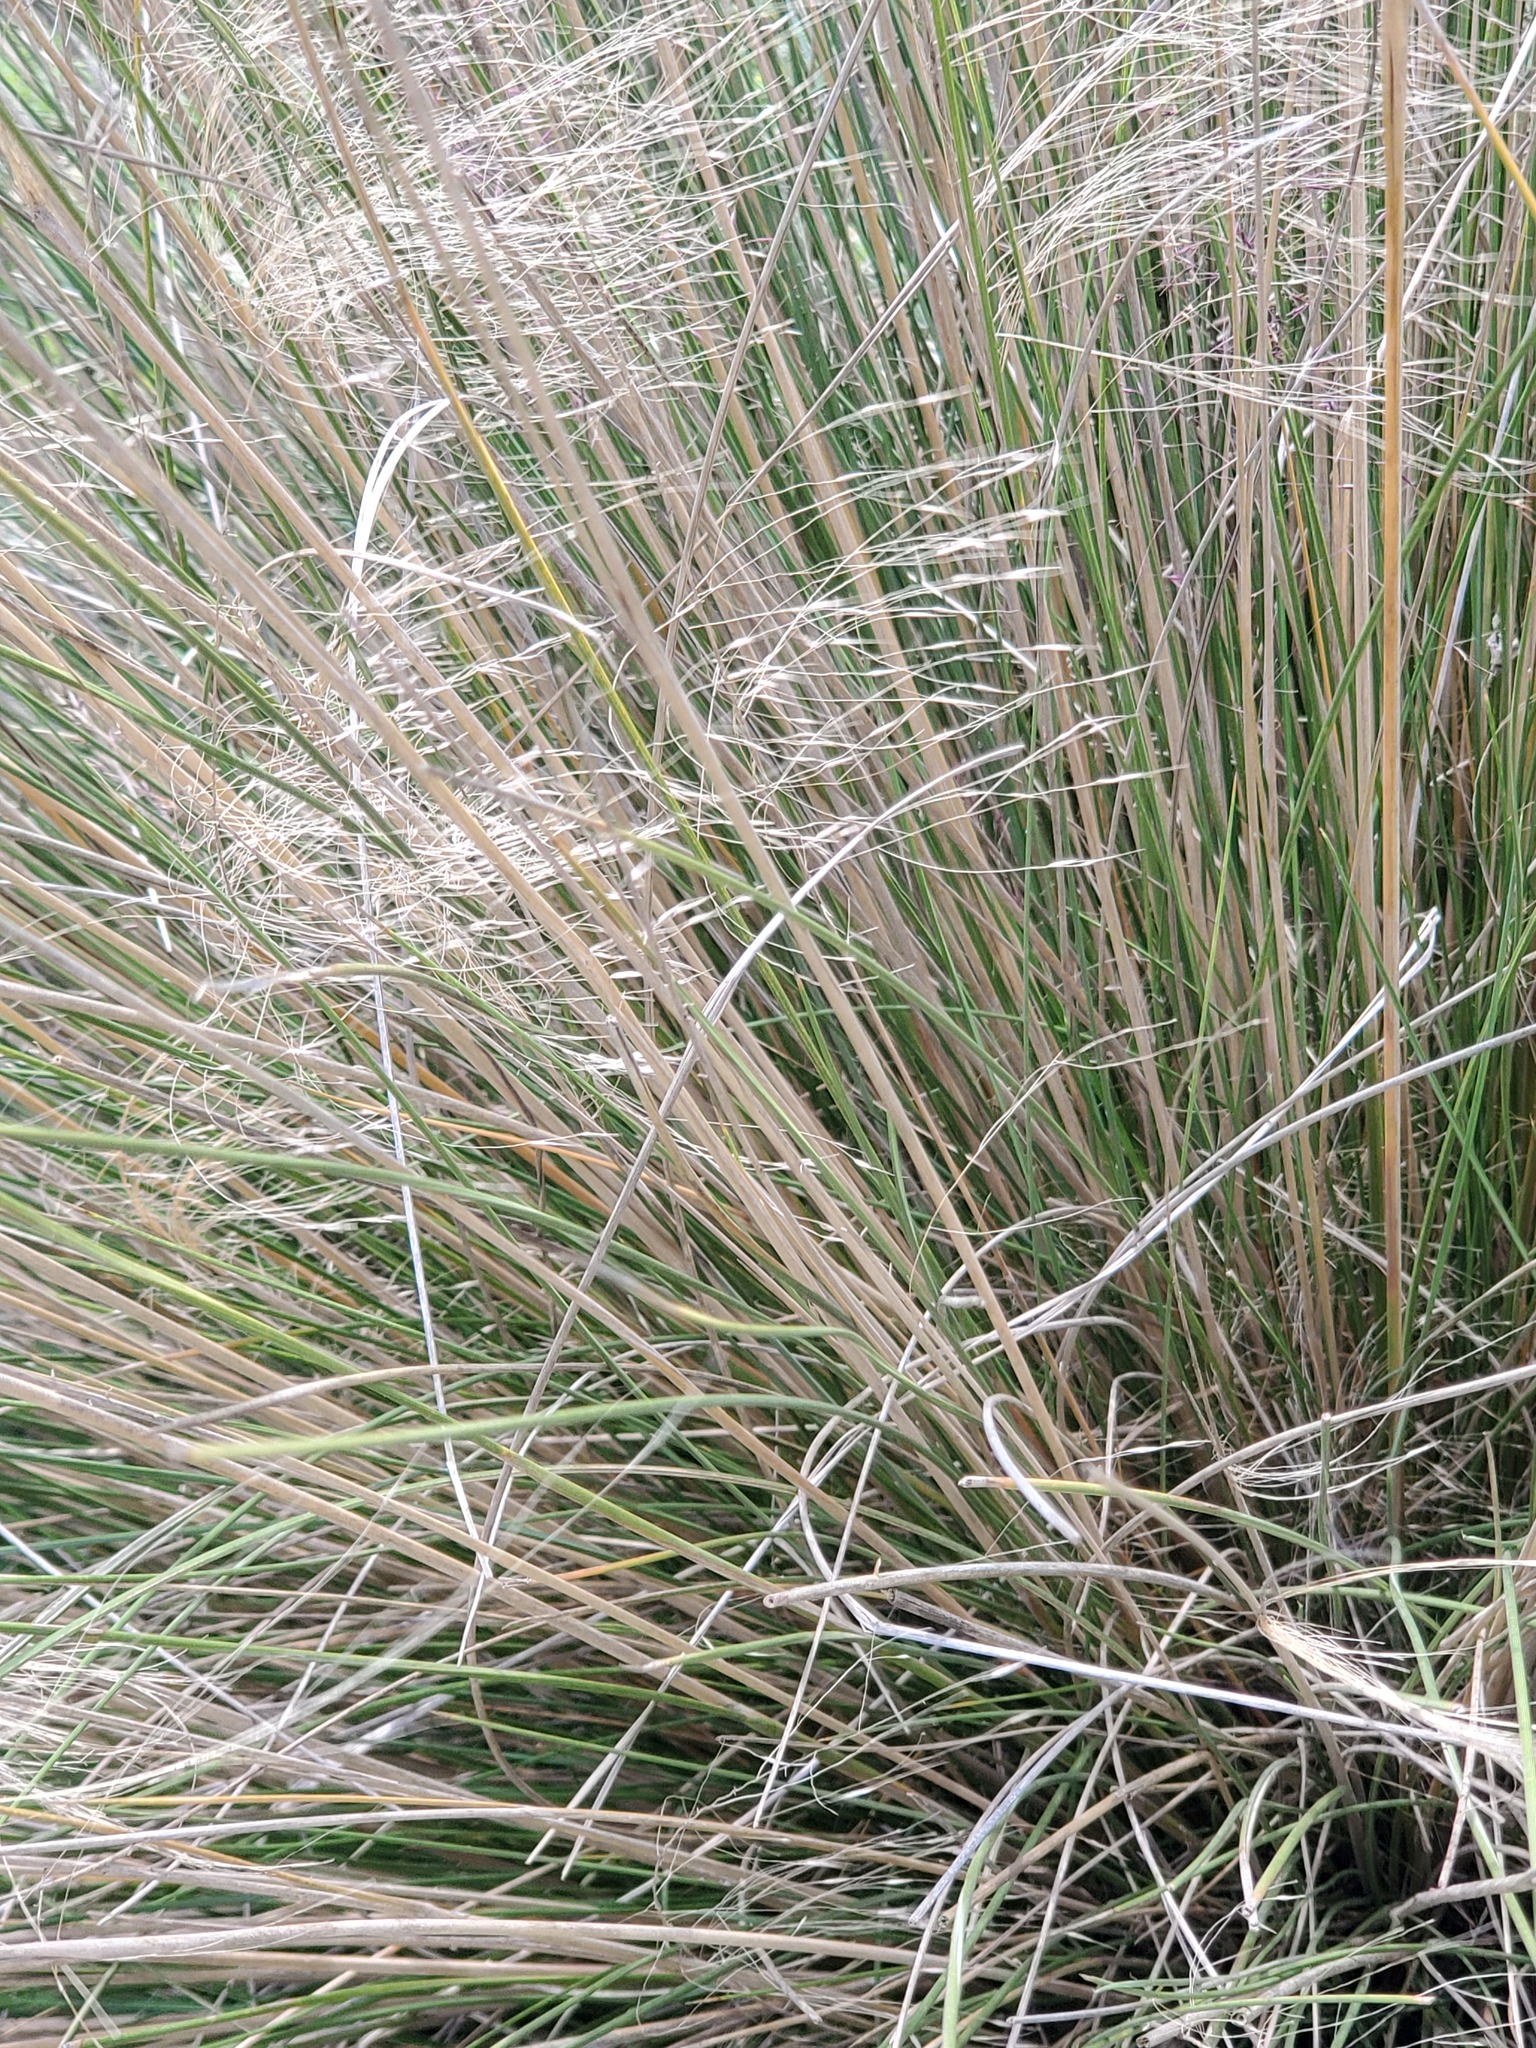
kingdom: Plantae
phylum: Tracheophyta
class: Liliopsida
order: Poales
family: Poaceae
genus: Muhlenbergia
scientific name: Muhlenbergia capillaris
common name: Purple grass
